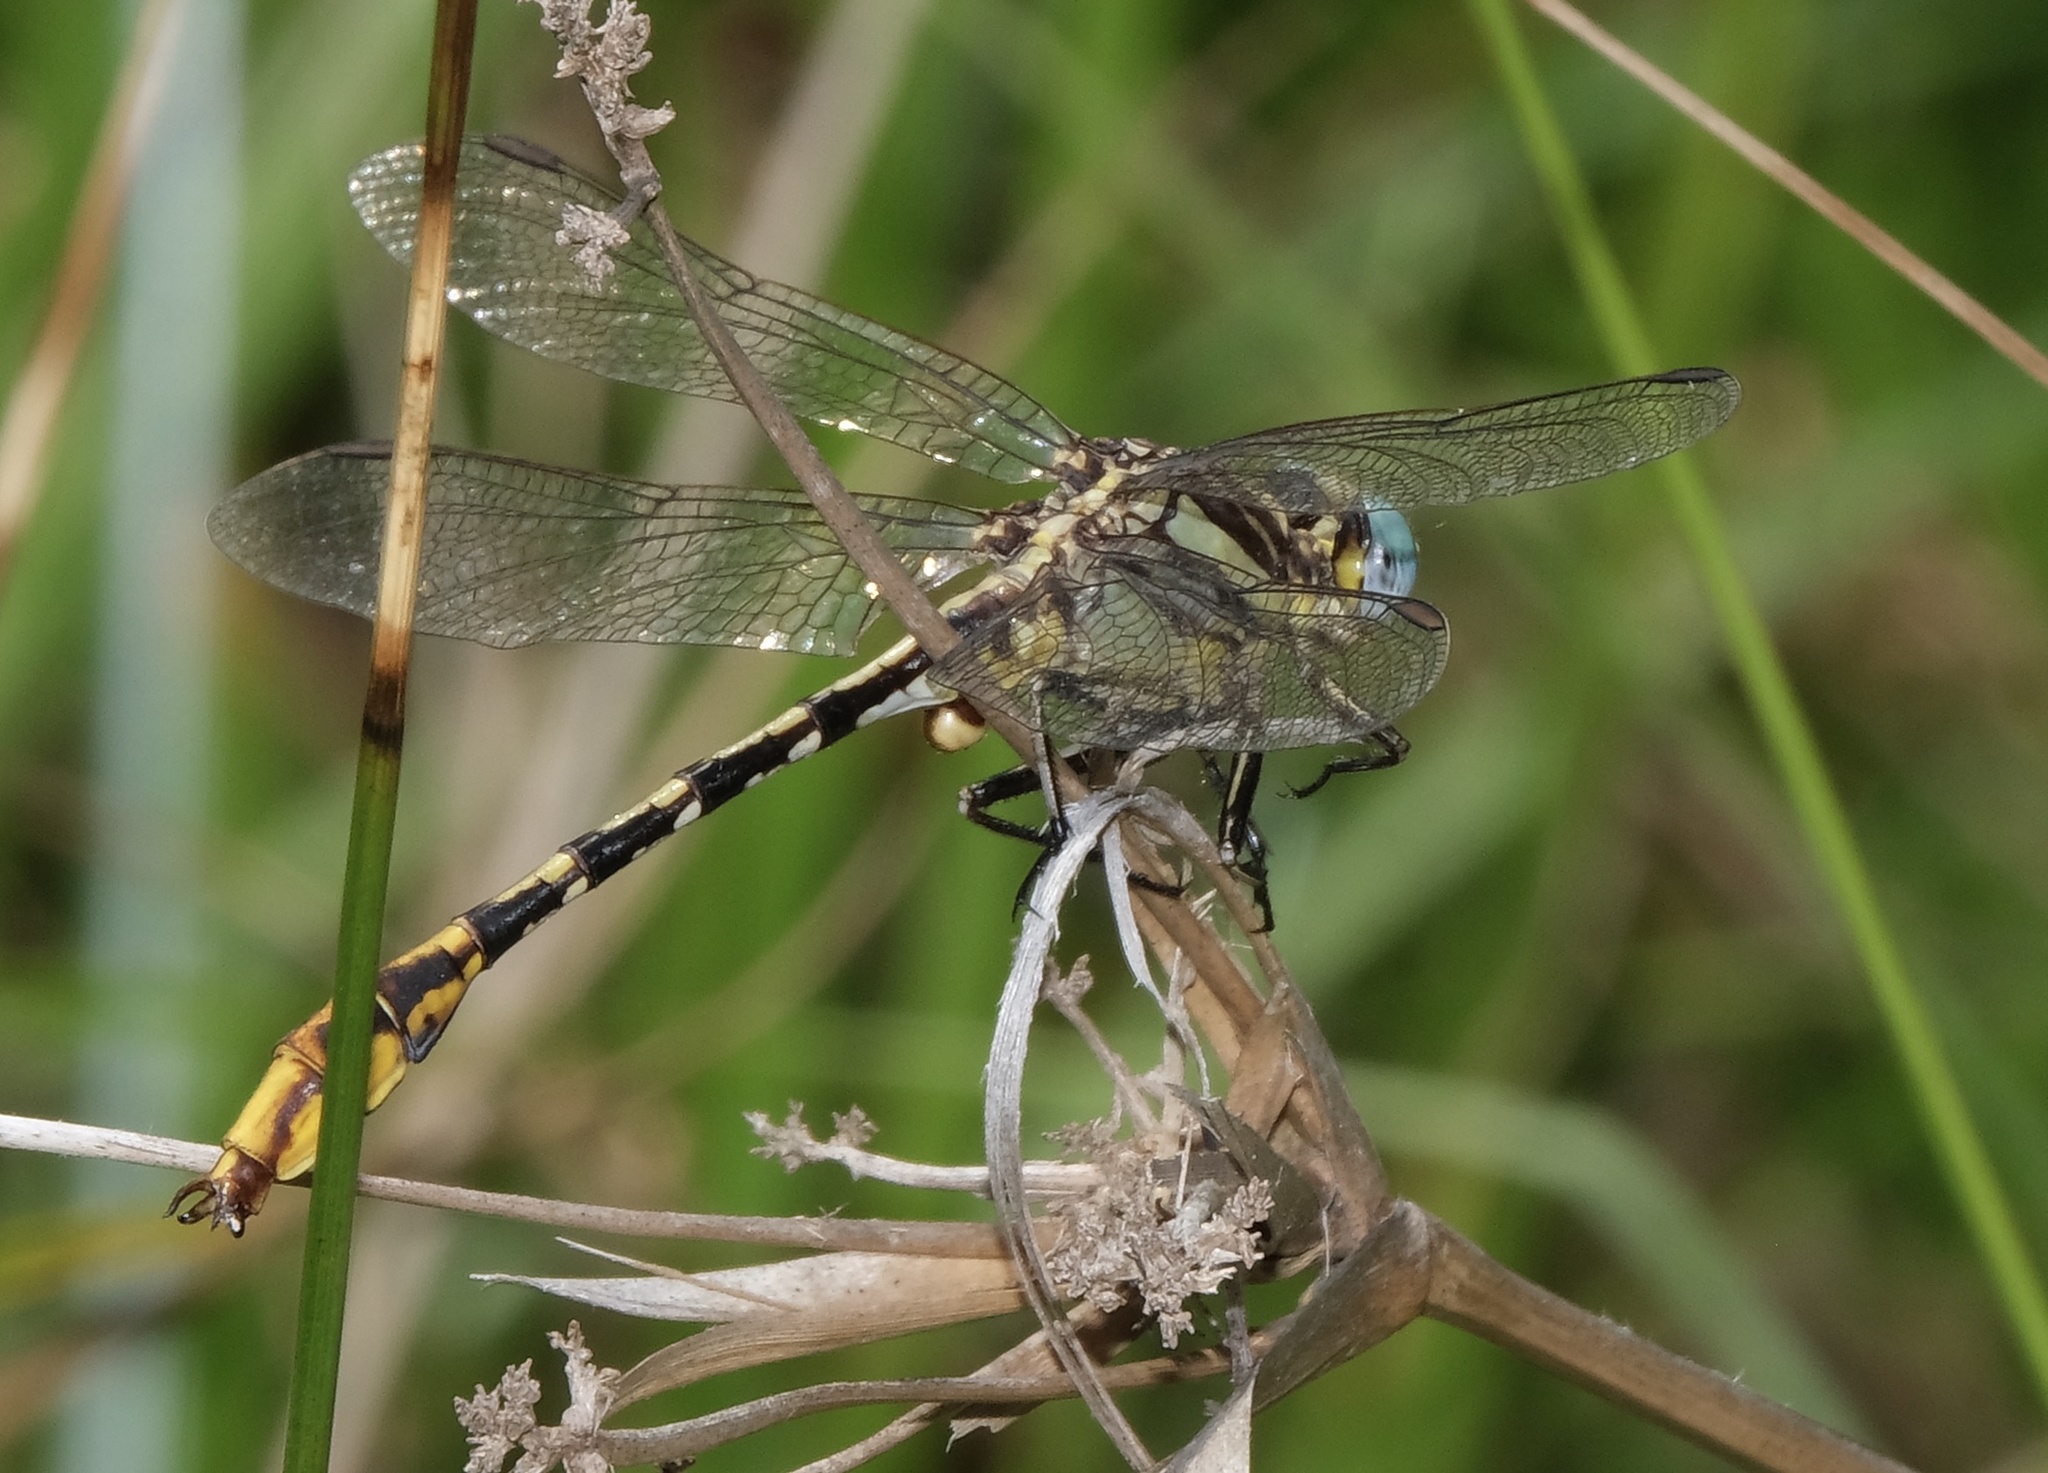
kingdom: Animalia
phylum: Arthropoda
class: Insecta
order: Odonata
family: Gomphidae
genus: Phanogomphus
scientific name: Phanogomphus militaris
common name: Sulphur-tipped clubtail
